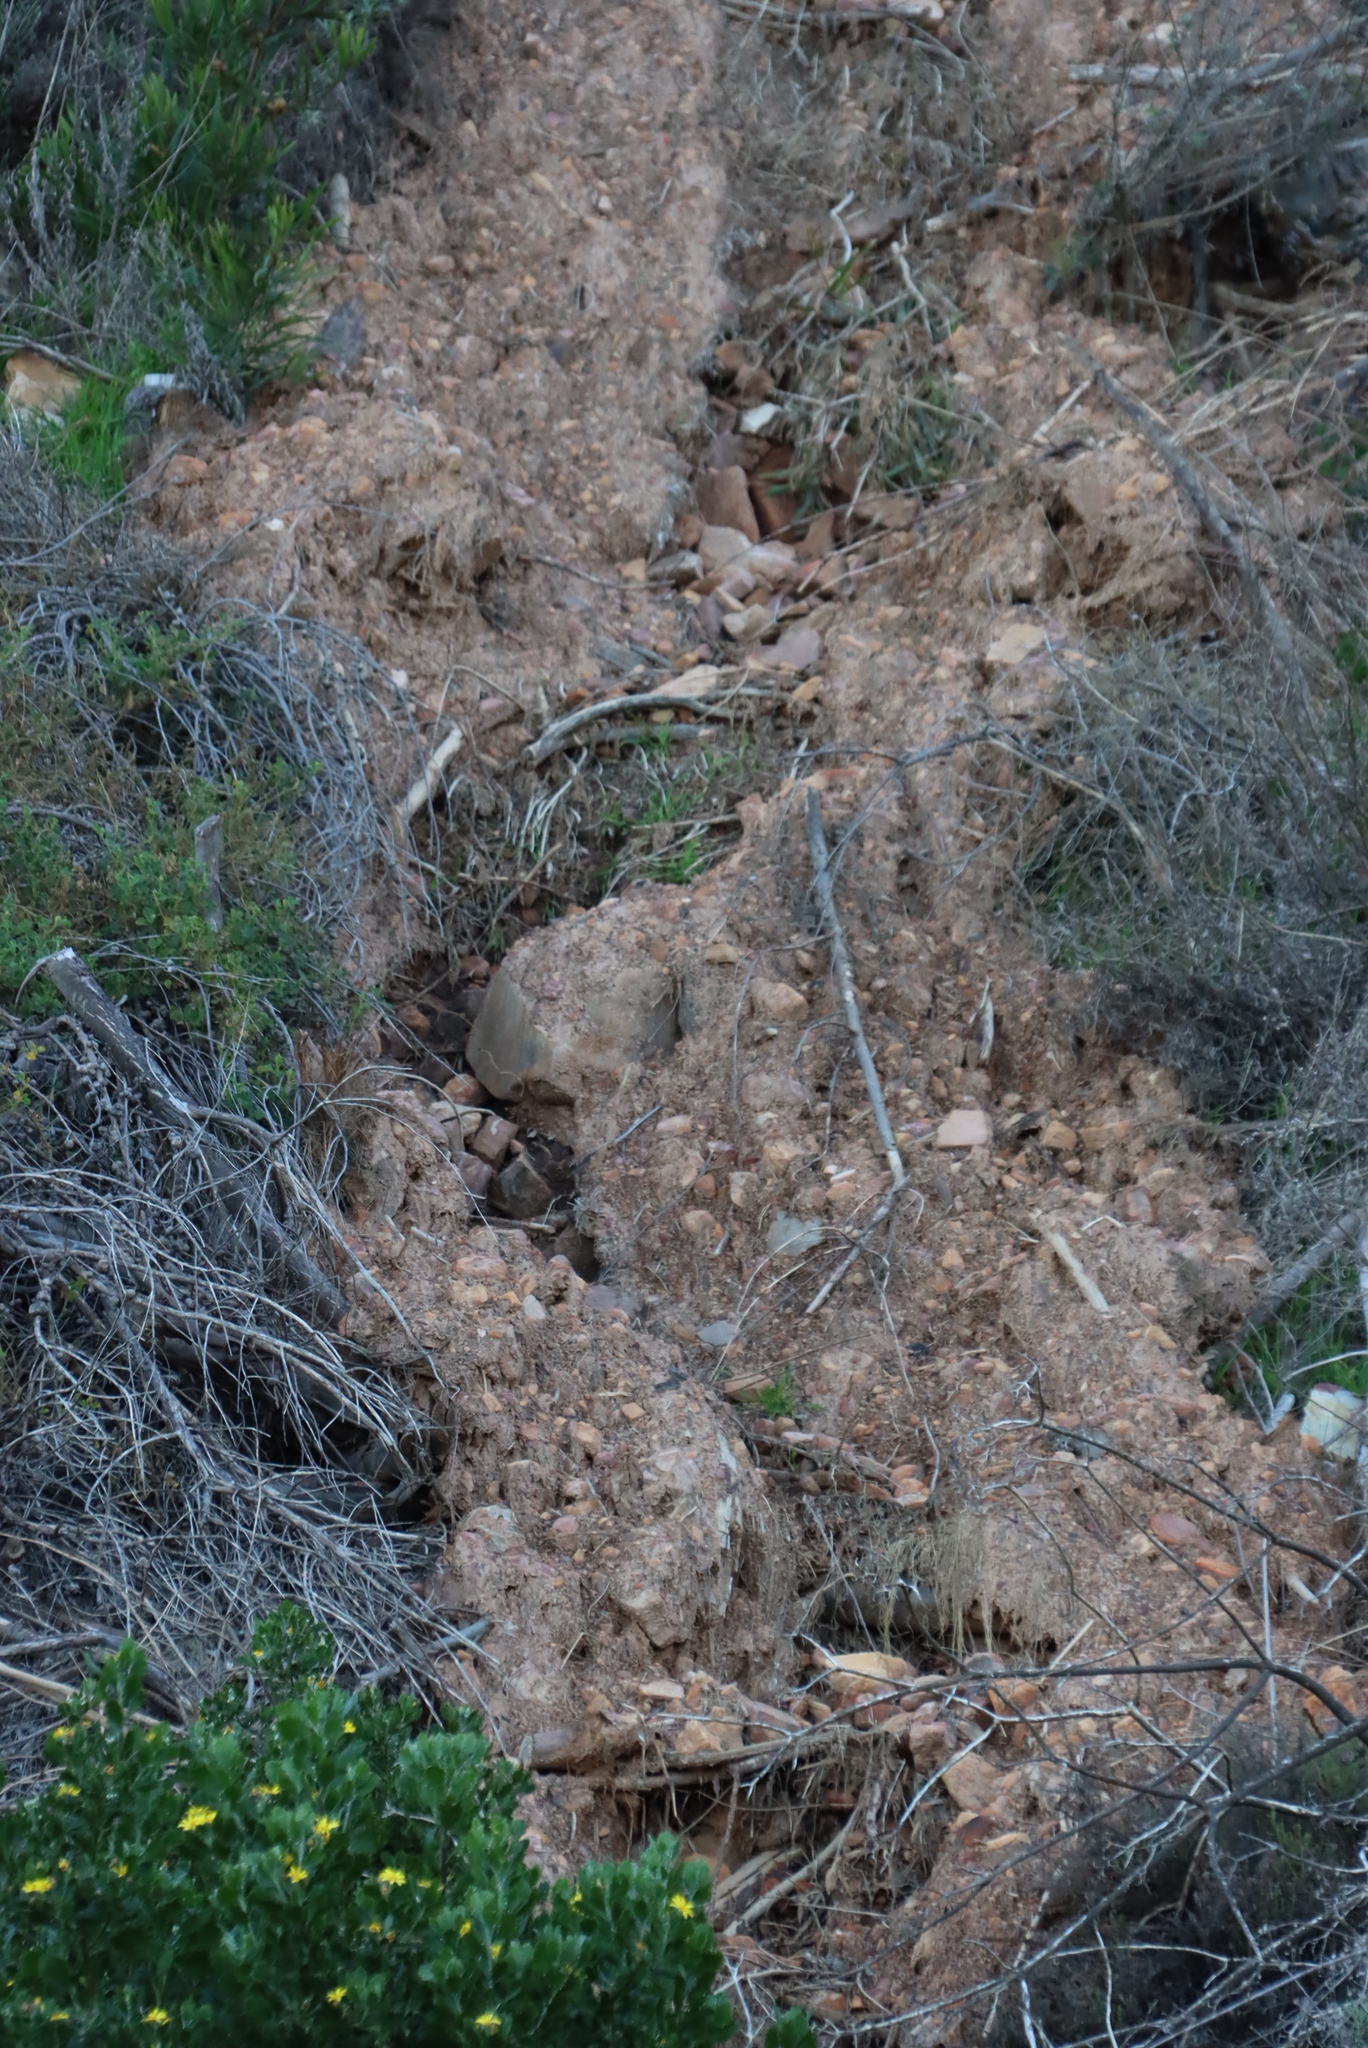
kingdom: Plantae
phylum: Tracheophyta
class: Magnoliopsida
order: Asterales
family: Asteraceae
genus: Osteospermum
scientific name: Osteospermum moniliferum
